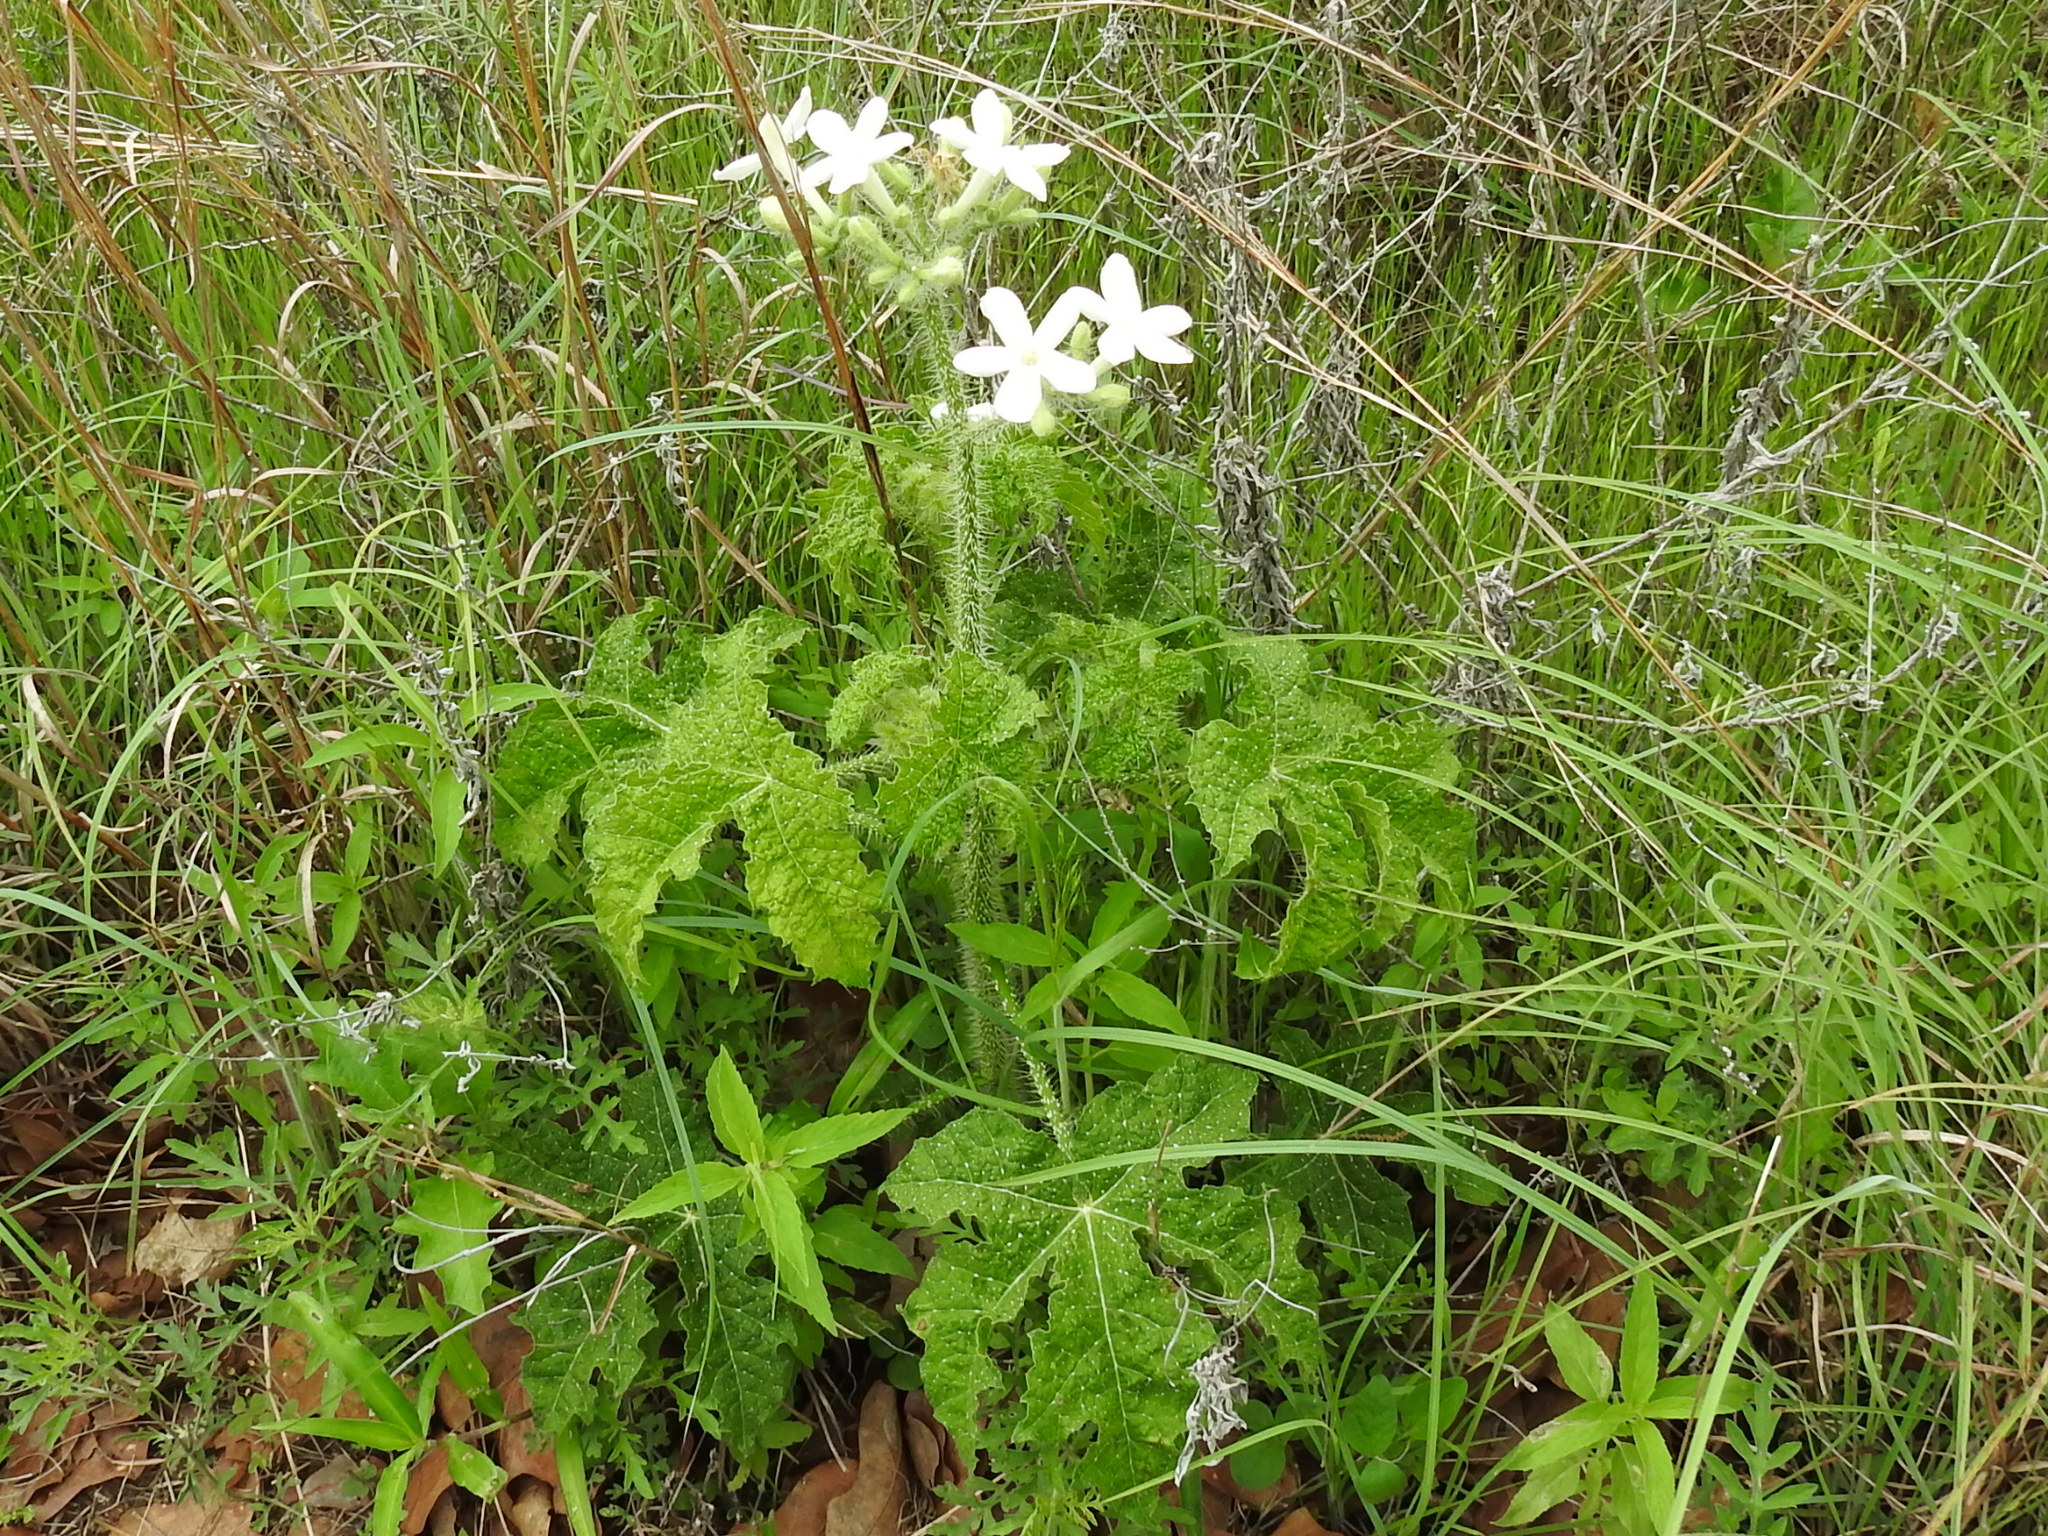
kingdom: Plantae
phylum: Tracheophyta
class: Magnoliopsida
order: Malpighiales
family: Euphorbiaceae
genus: Cnidoscolus
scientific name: Cnidoscolus texanus
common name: Texas bull-nettle
